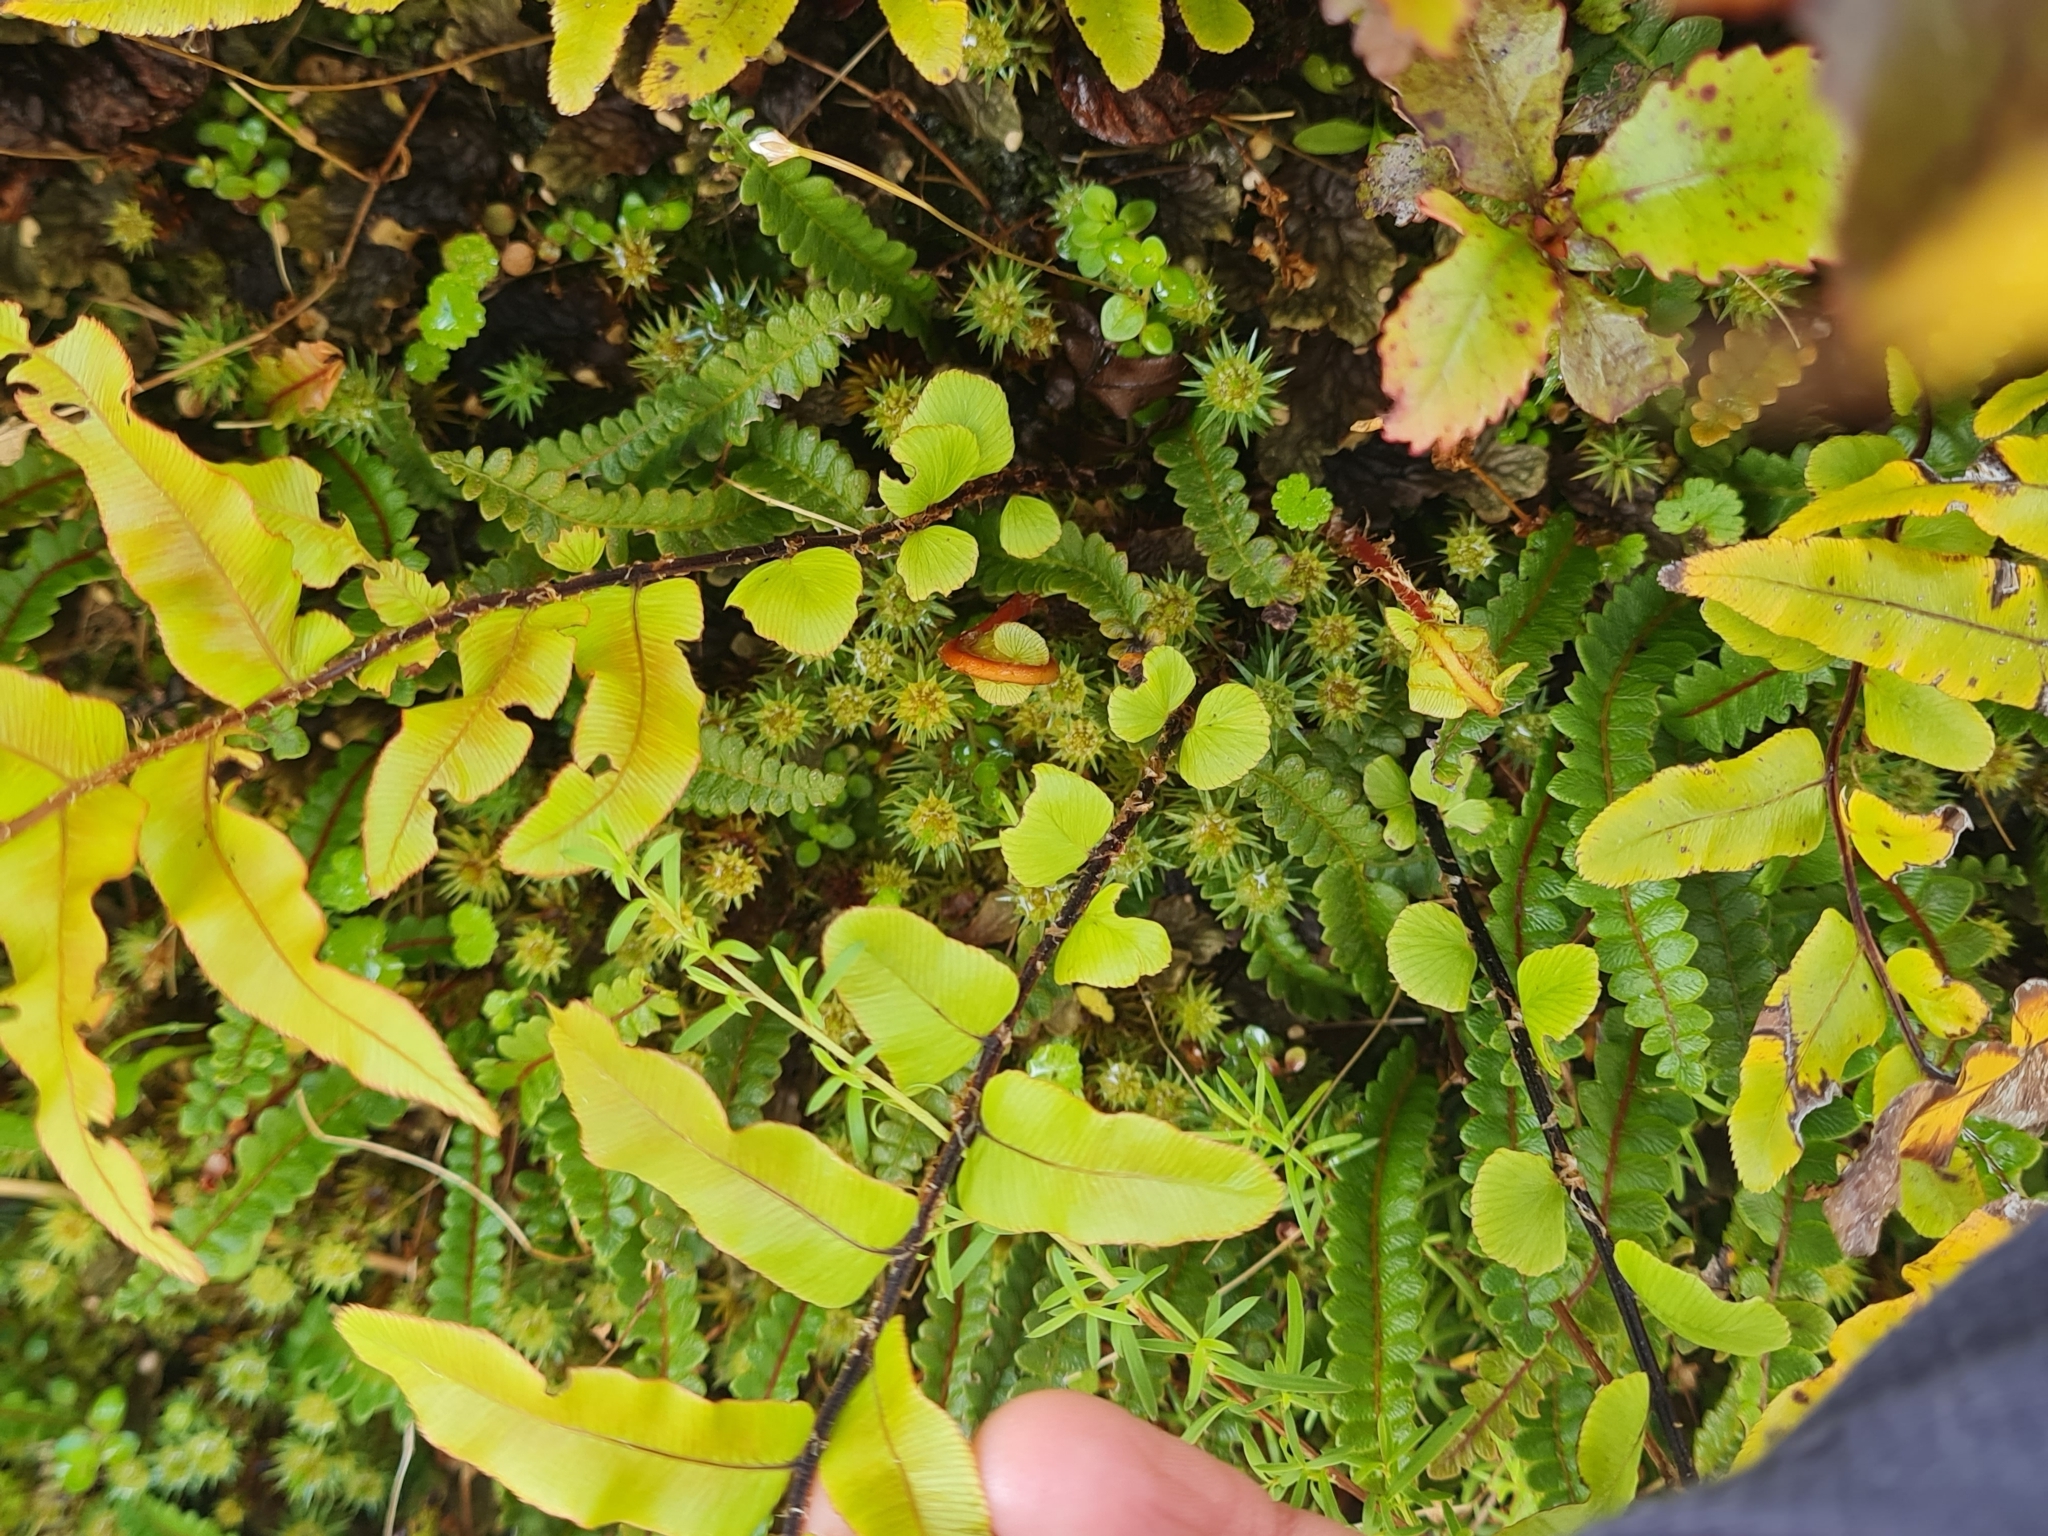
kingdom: Plantae
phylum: Tracheophyta
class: Polypodiopsida
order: Polypodiales
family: Blechnaceae
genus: Parablechnum
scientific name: Parablechnum minus
